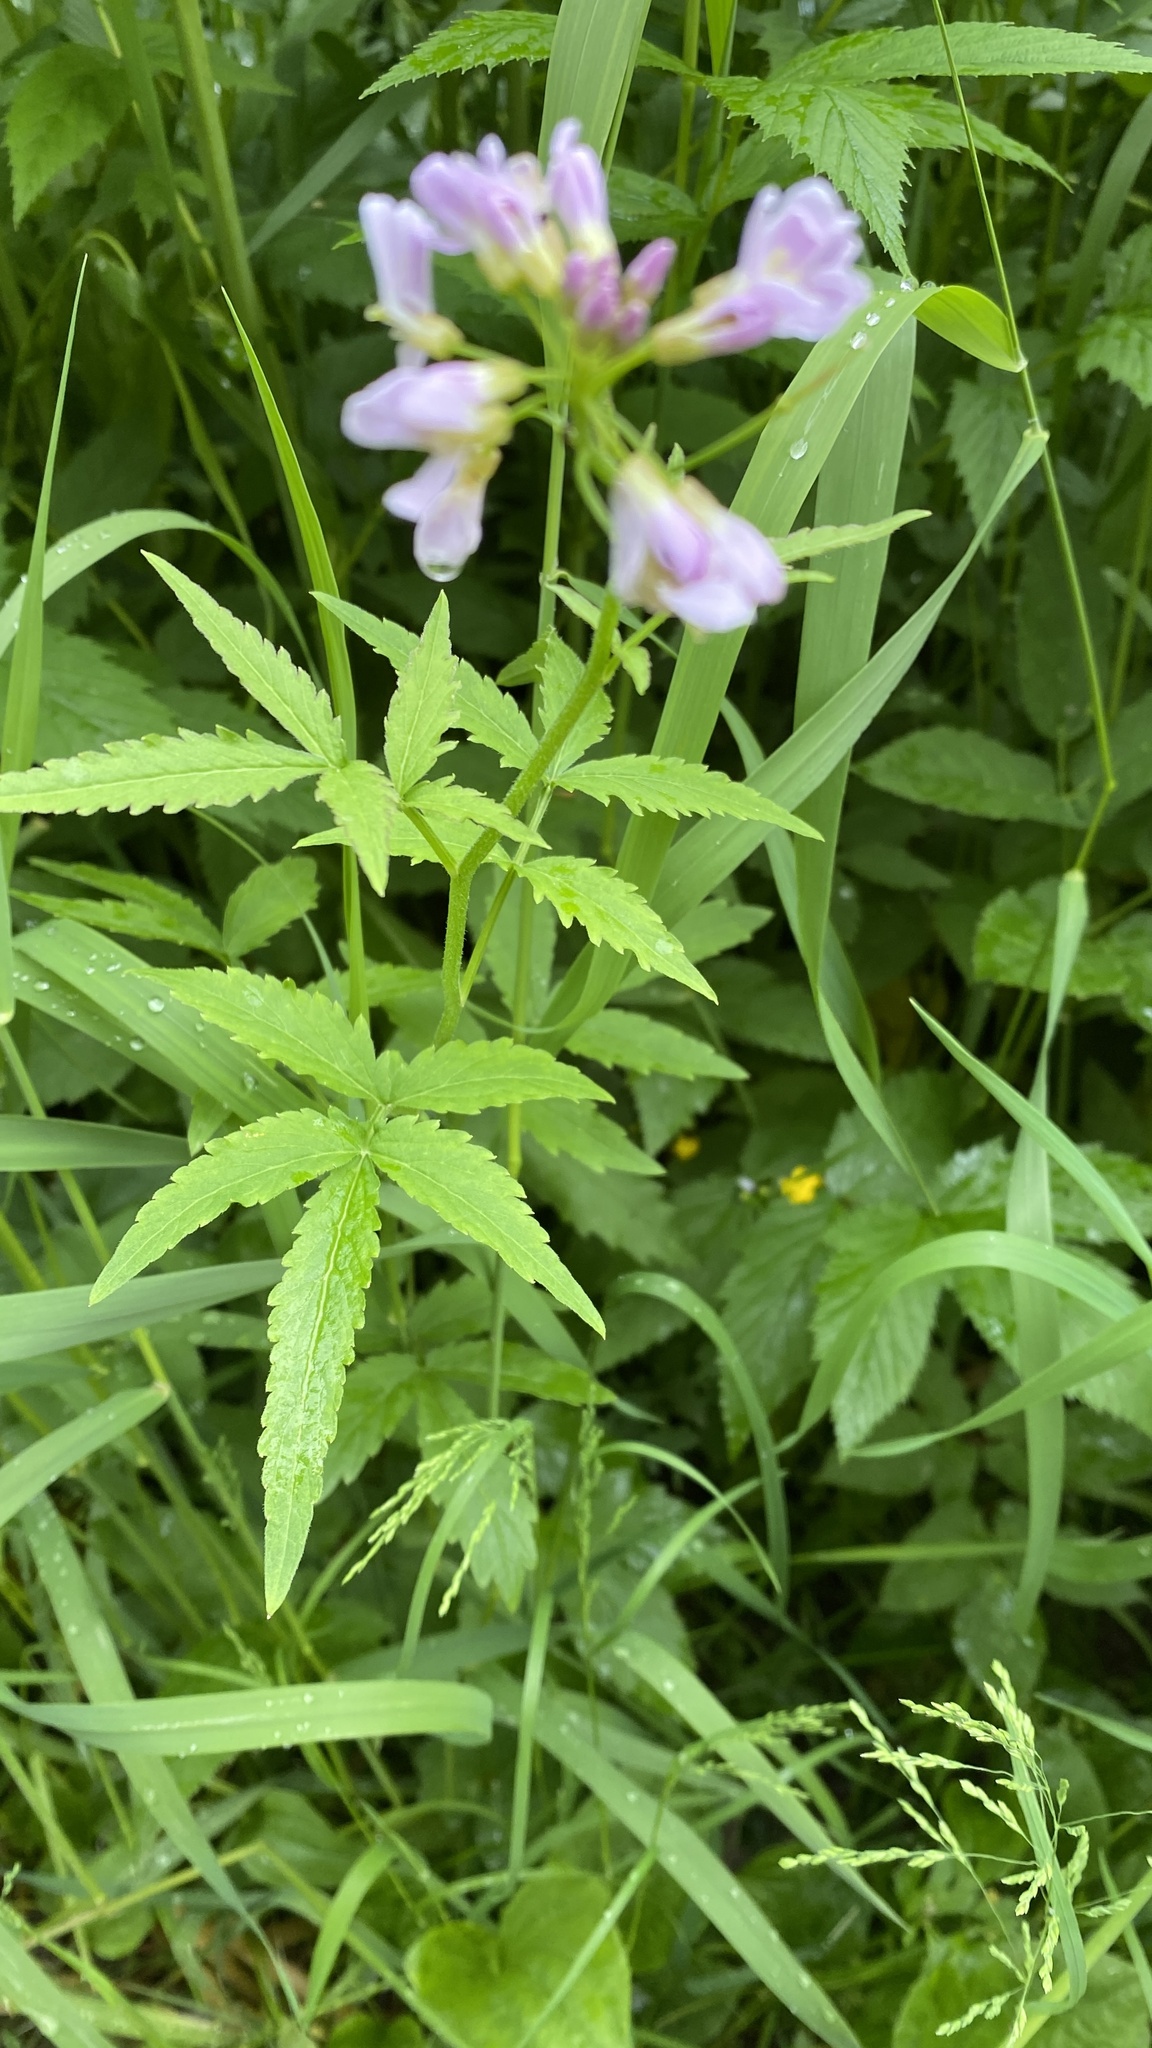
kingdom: Plantae
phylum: Tracheophyta
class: Magnoliopsida
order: Brassicales
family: Brassicaceae
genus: Cardamine
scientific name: Cardamine macrophylla
